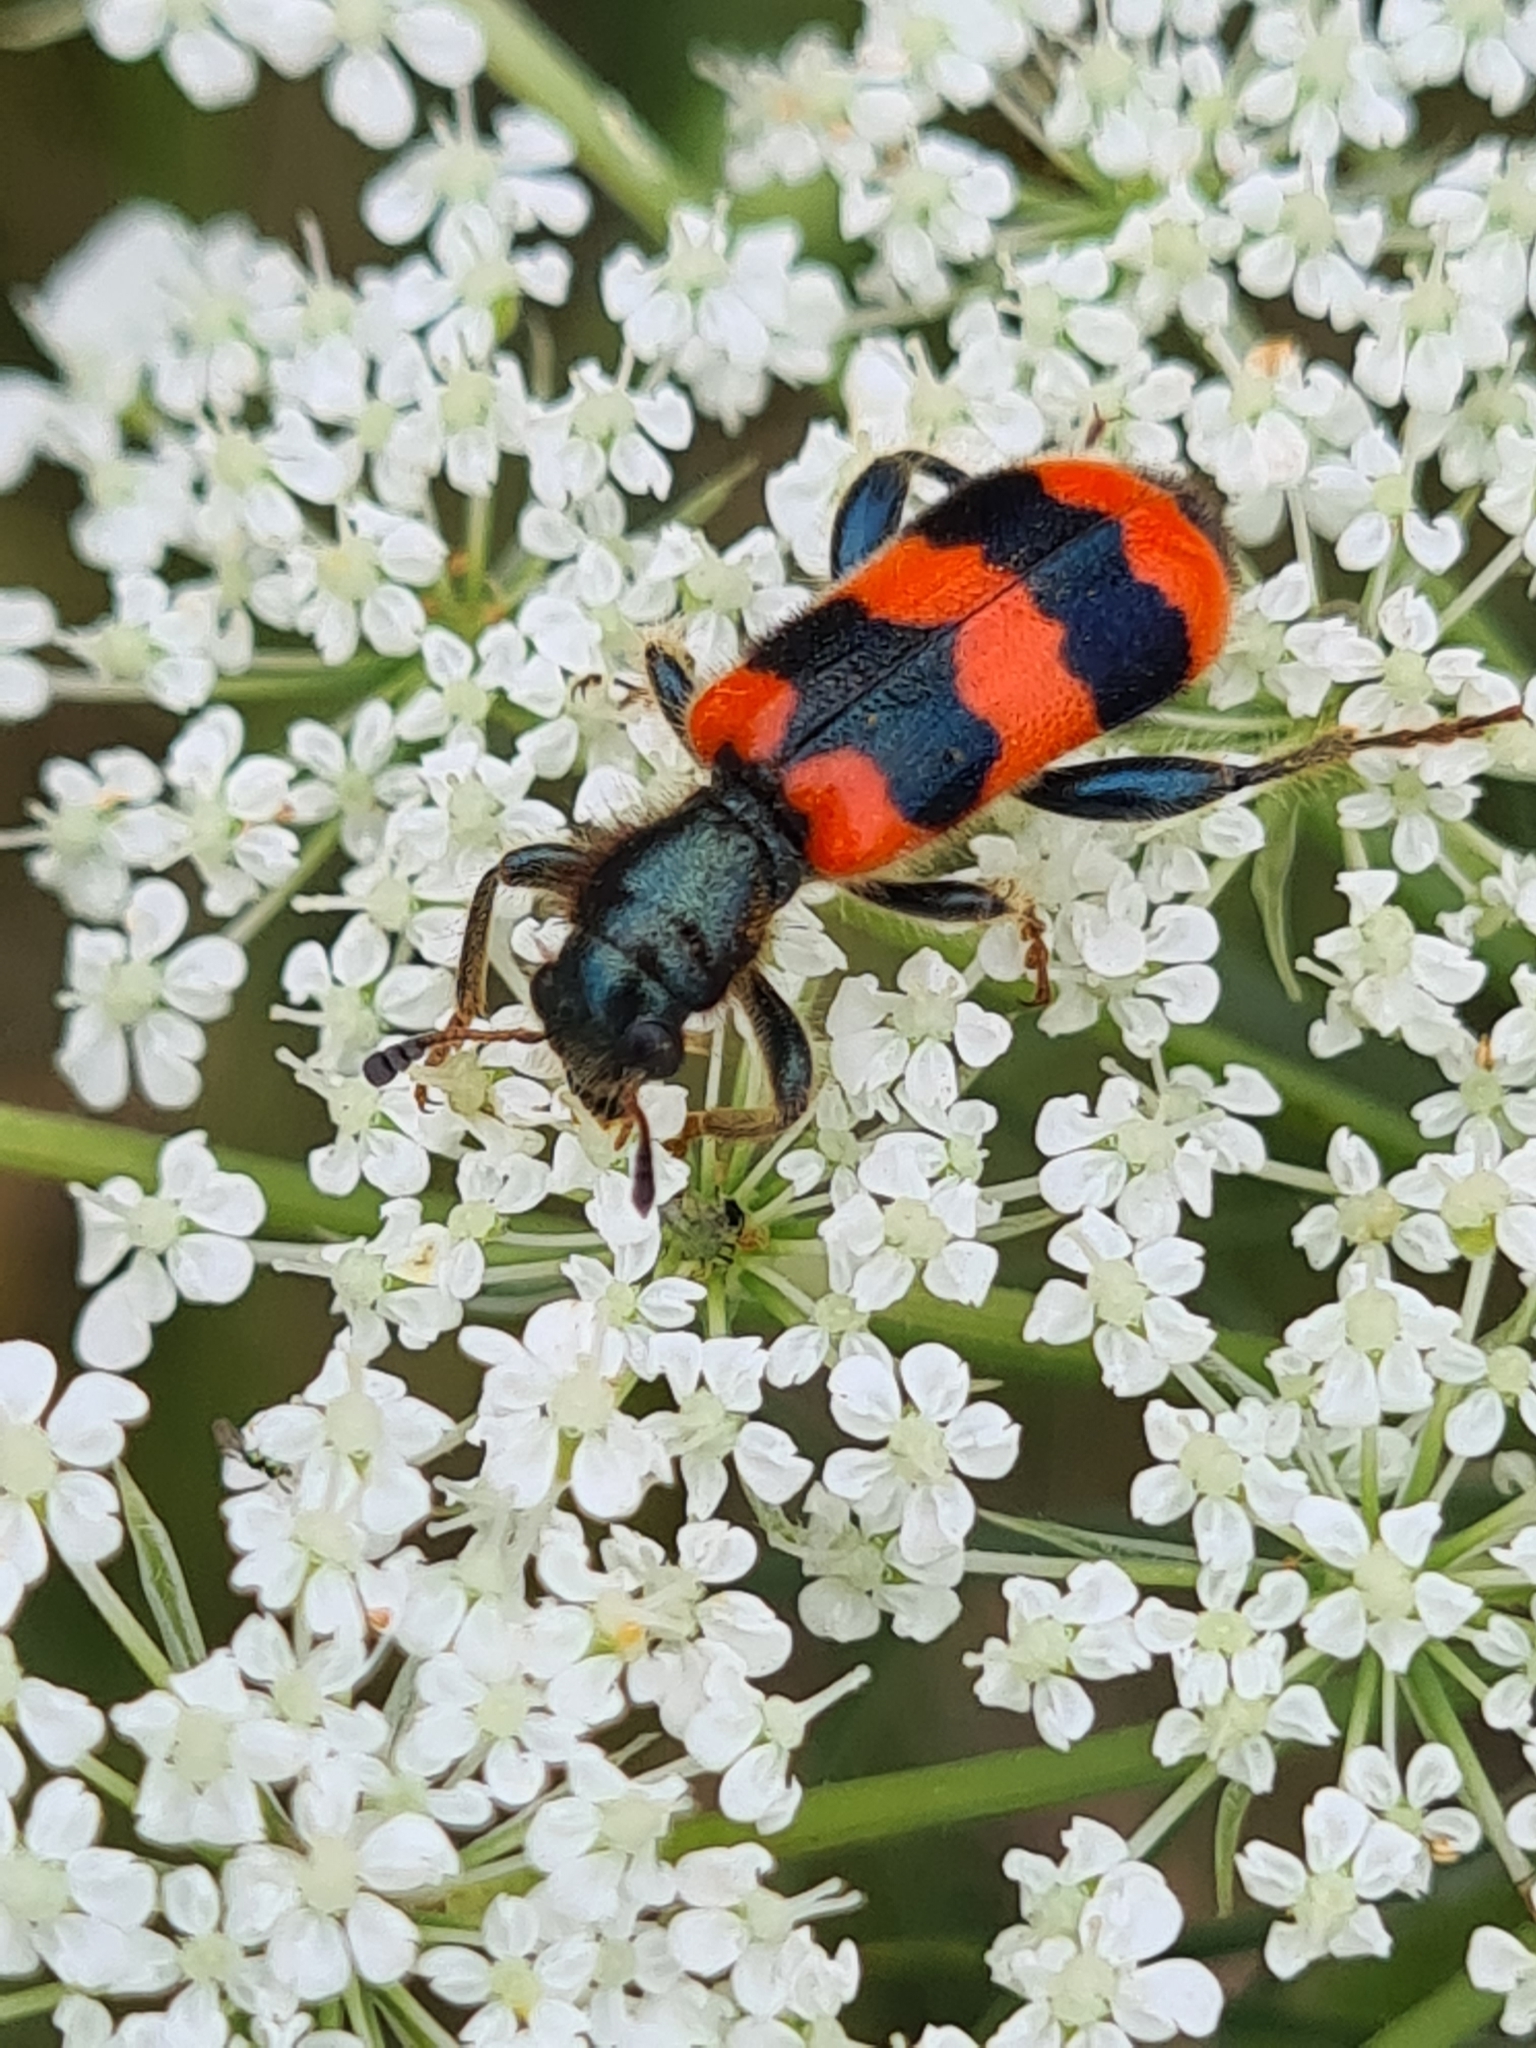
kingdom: Animalia
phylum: Arthropoda
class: Insecta
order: Coleoptera
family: Cleridae
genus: Trichodes
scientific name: Trichodes apiarius
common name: Bee-eating beetle
